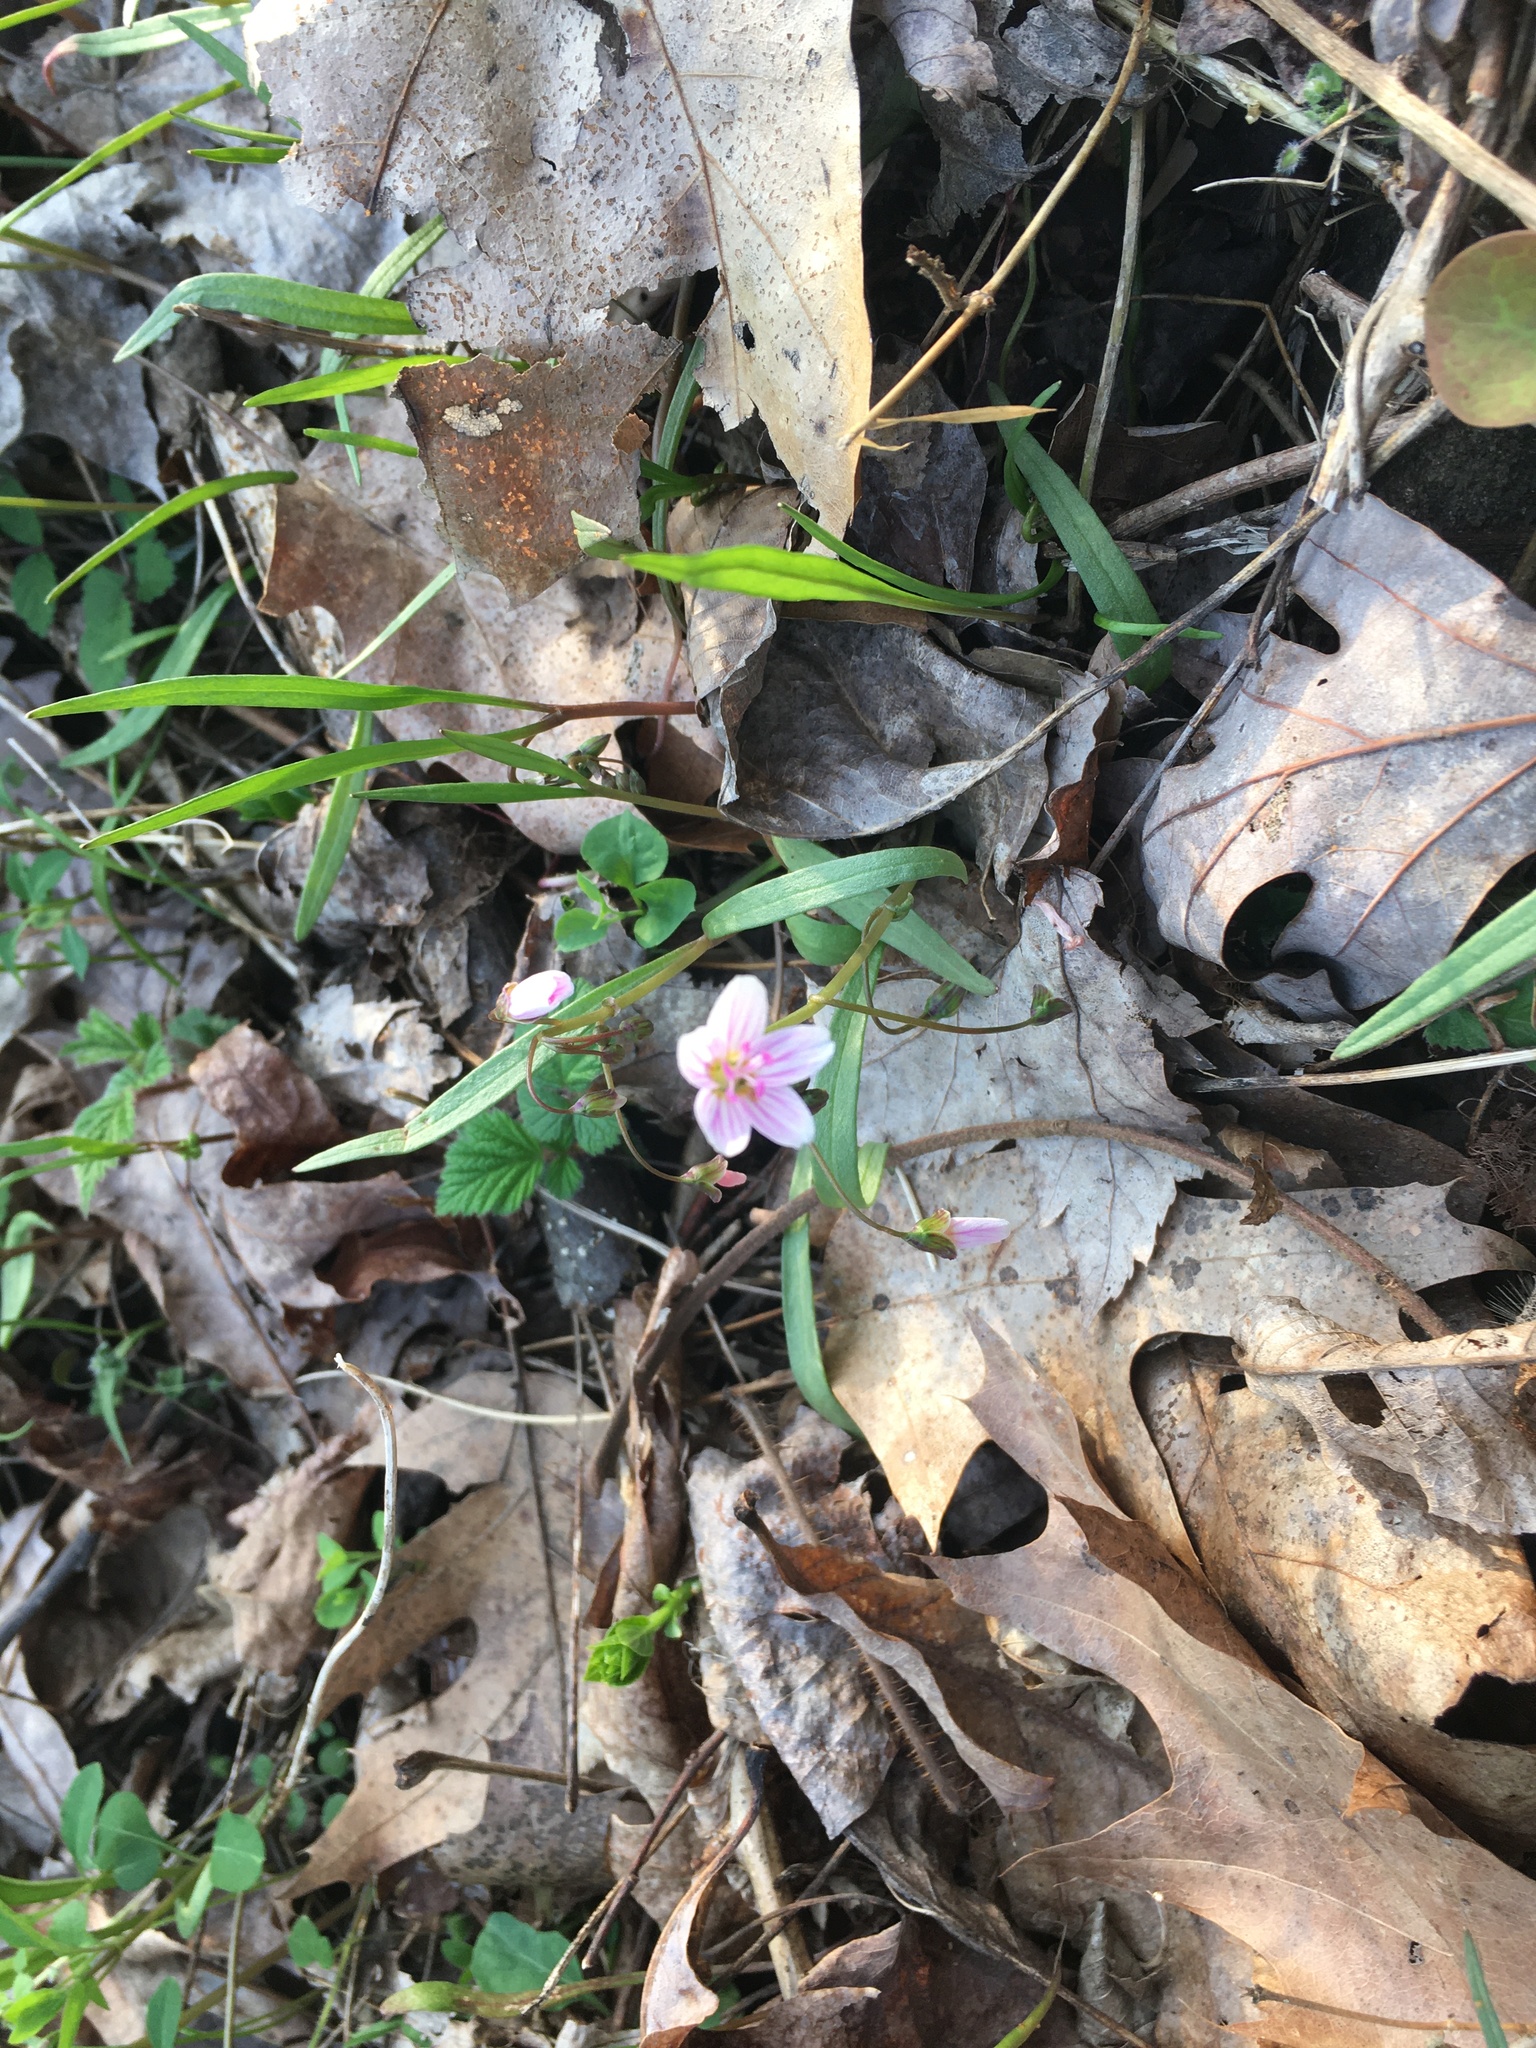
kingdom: Plantae
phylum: Tracheophyta
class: Magnoliopsida
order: Caryophyllales
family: Montiaceae
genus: Claytonia
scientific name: Claytonia virginica
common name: Virginia springbeauty
